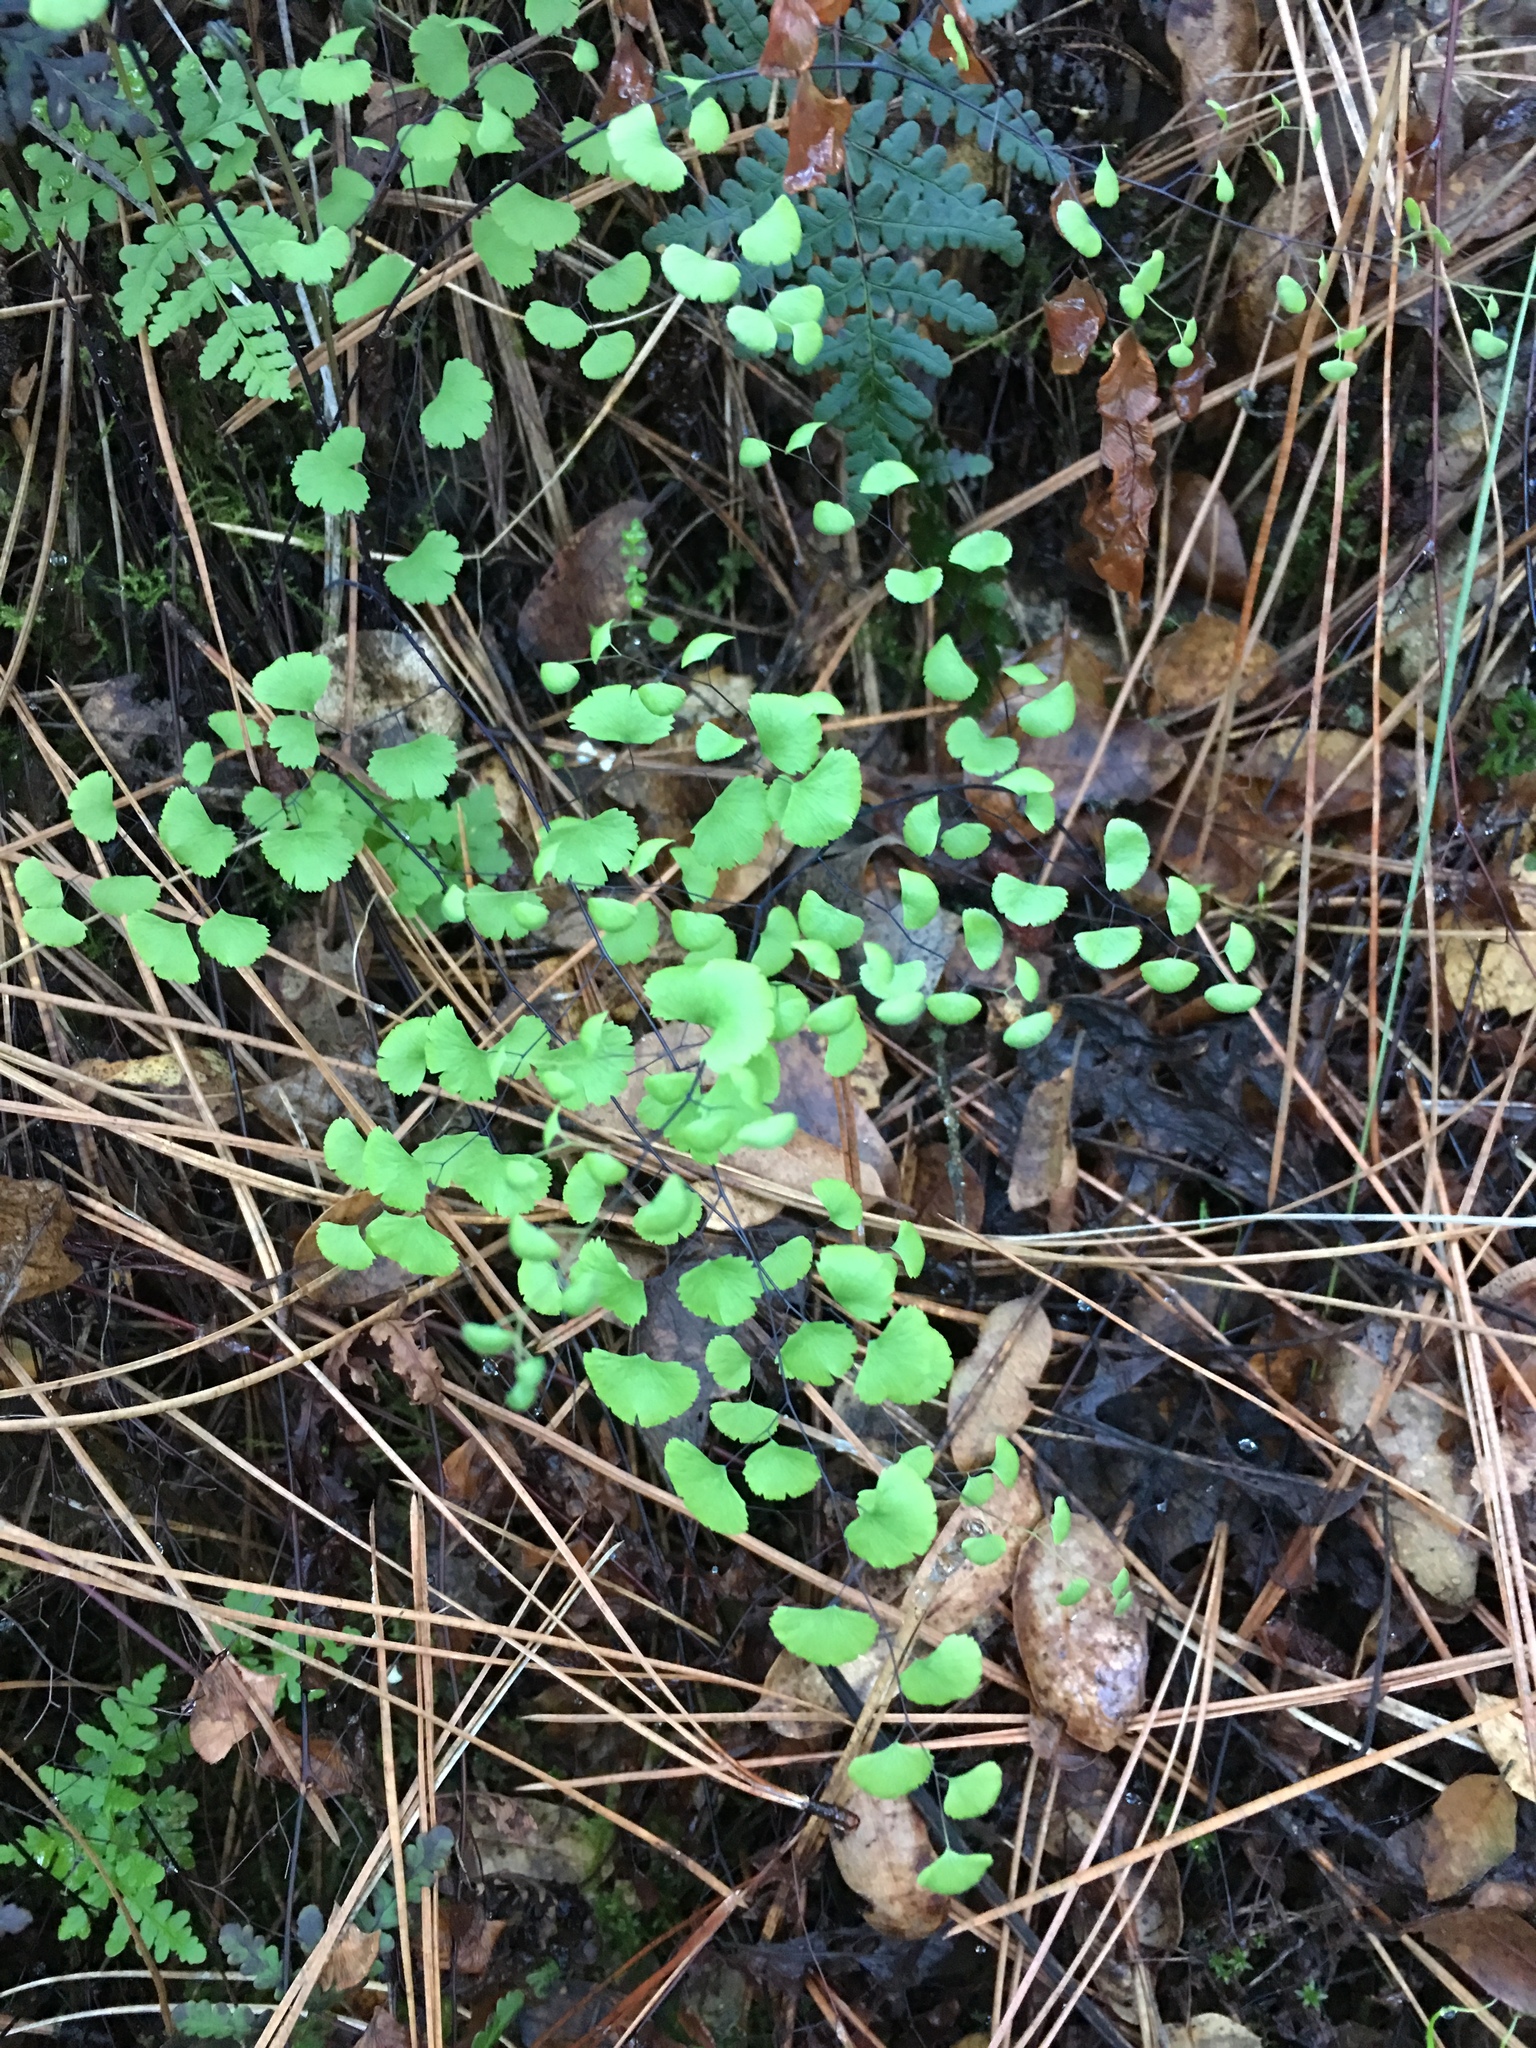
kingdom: Plantae
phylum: Tracheophyta
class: Polypodiopsida
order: Polypodiales
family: Pteridaceae
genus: Adiantum
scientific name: Adiantum jordanii
